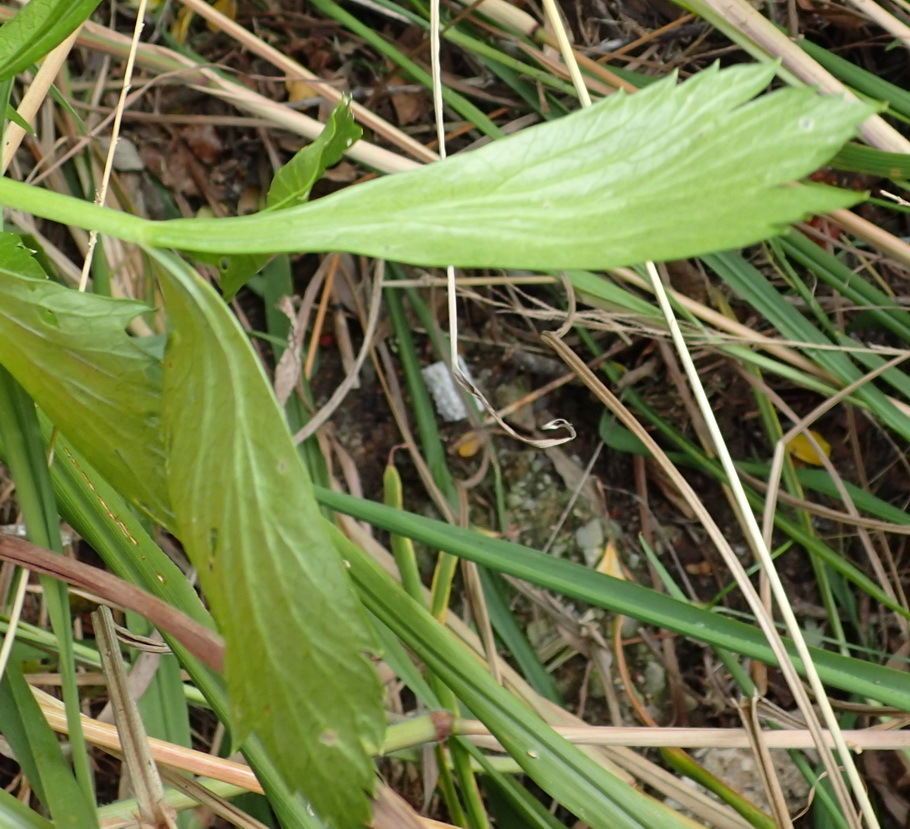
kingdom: Plantae
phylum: Tracheophyta
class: Magnoliopsida
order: Apiales
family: Apiaceae
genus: Apium
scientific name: Apium graveolens
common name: Wild celery
